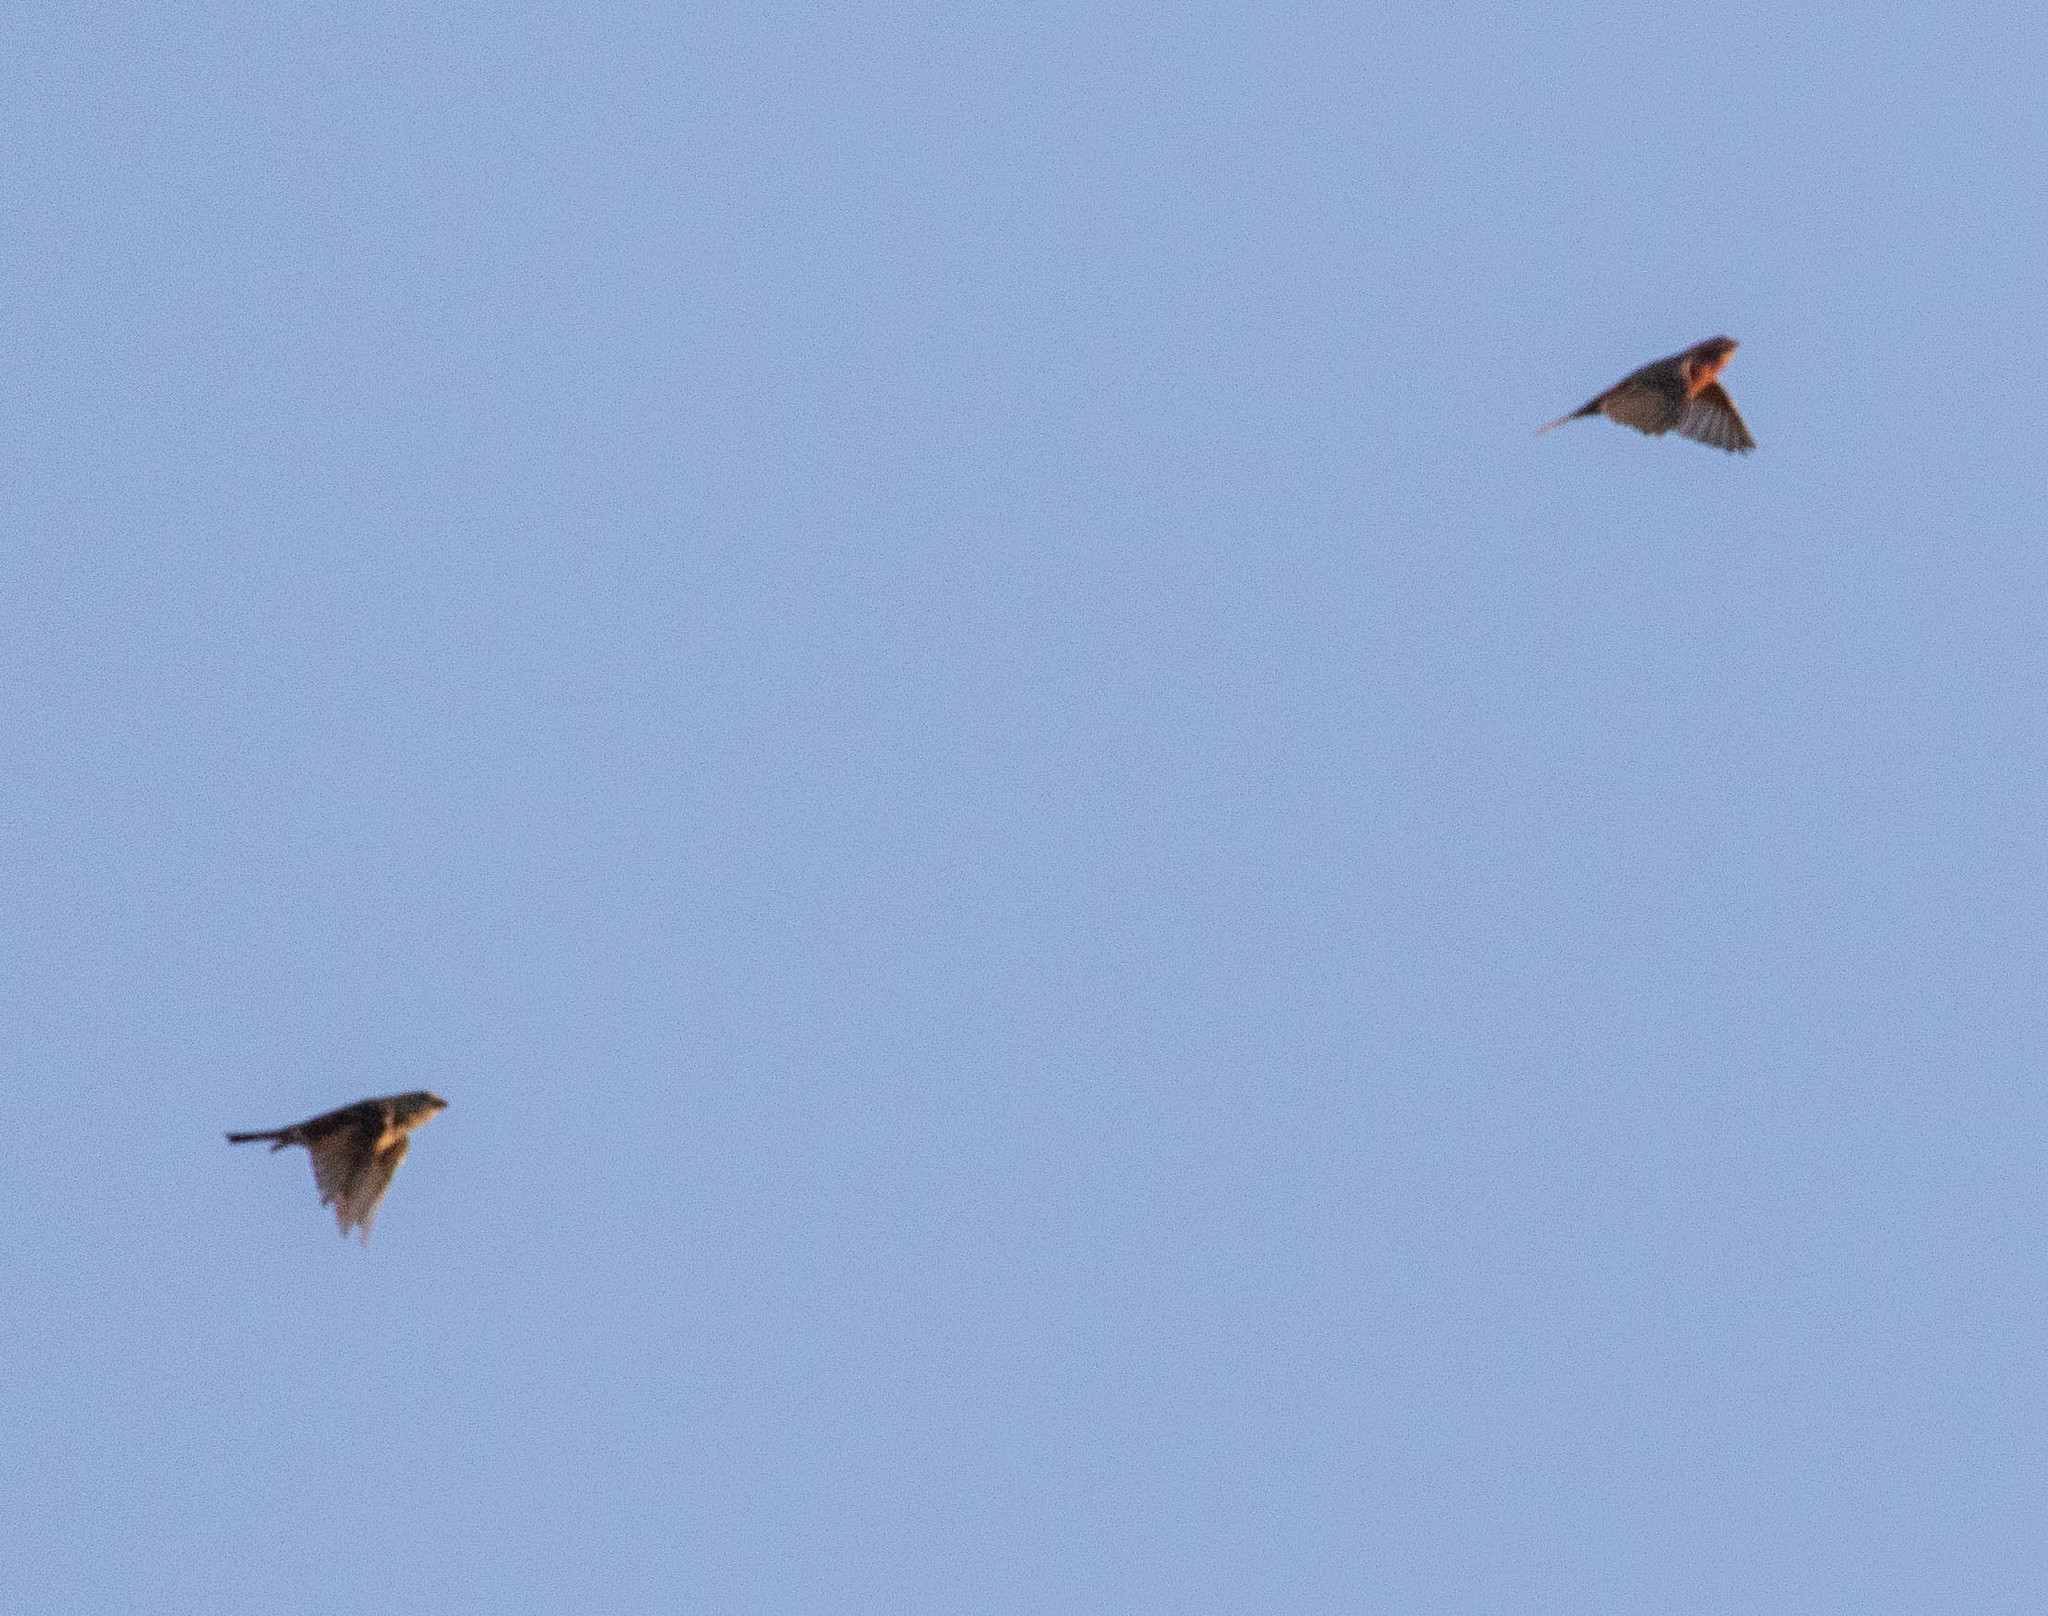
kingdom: Animalia
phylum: Chordata
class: Aves
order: Passeriformes
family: Fringillidae
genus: Haemorhous
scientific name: Haemorhous mexicanus
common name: House finch
